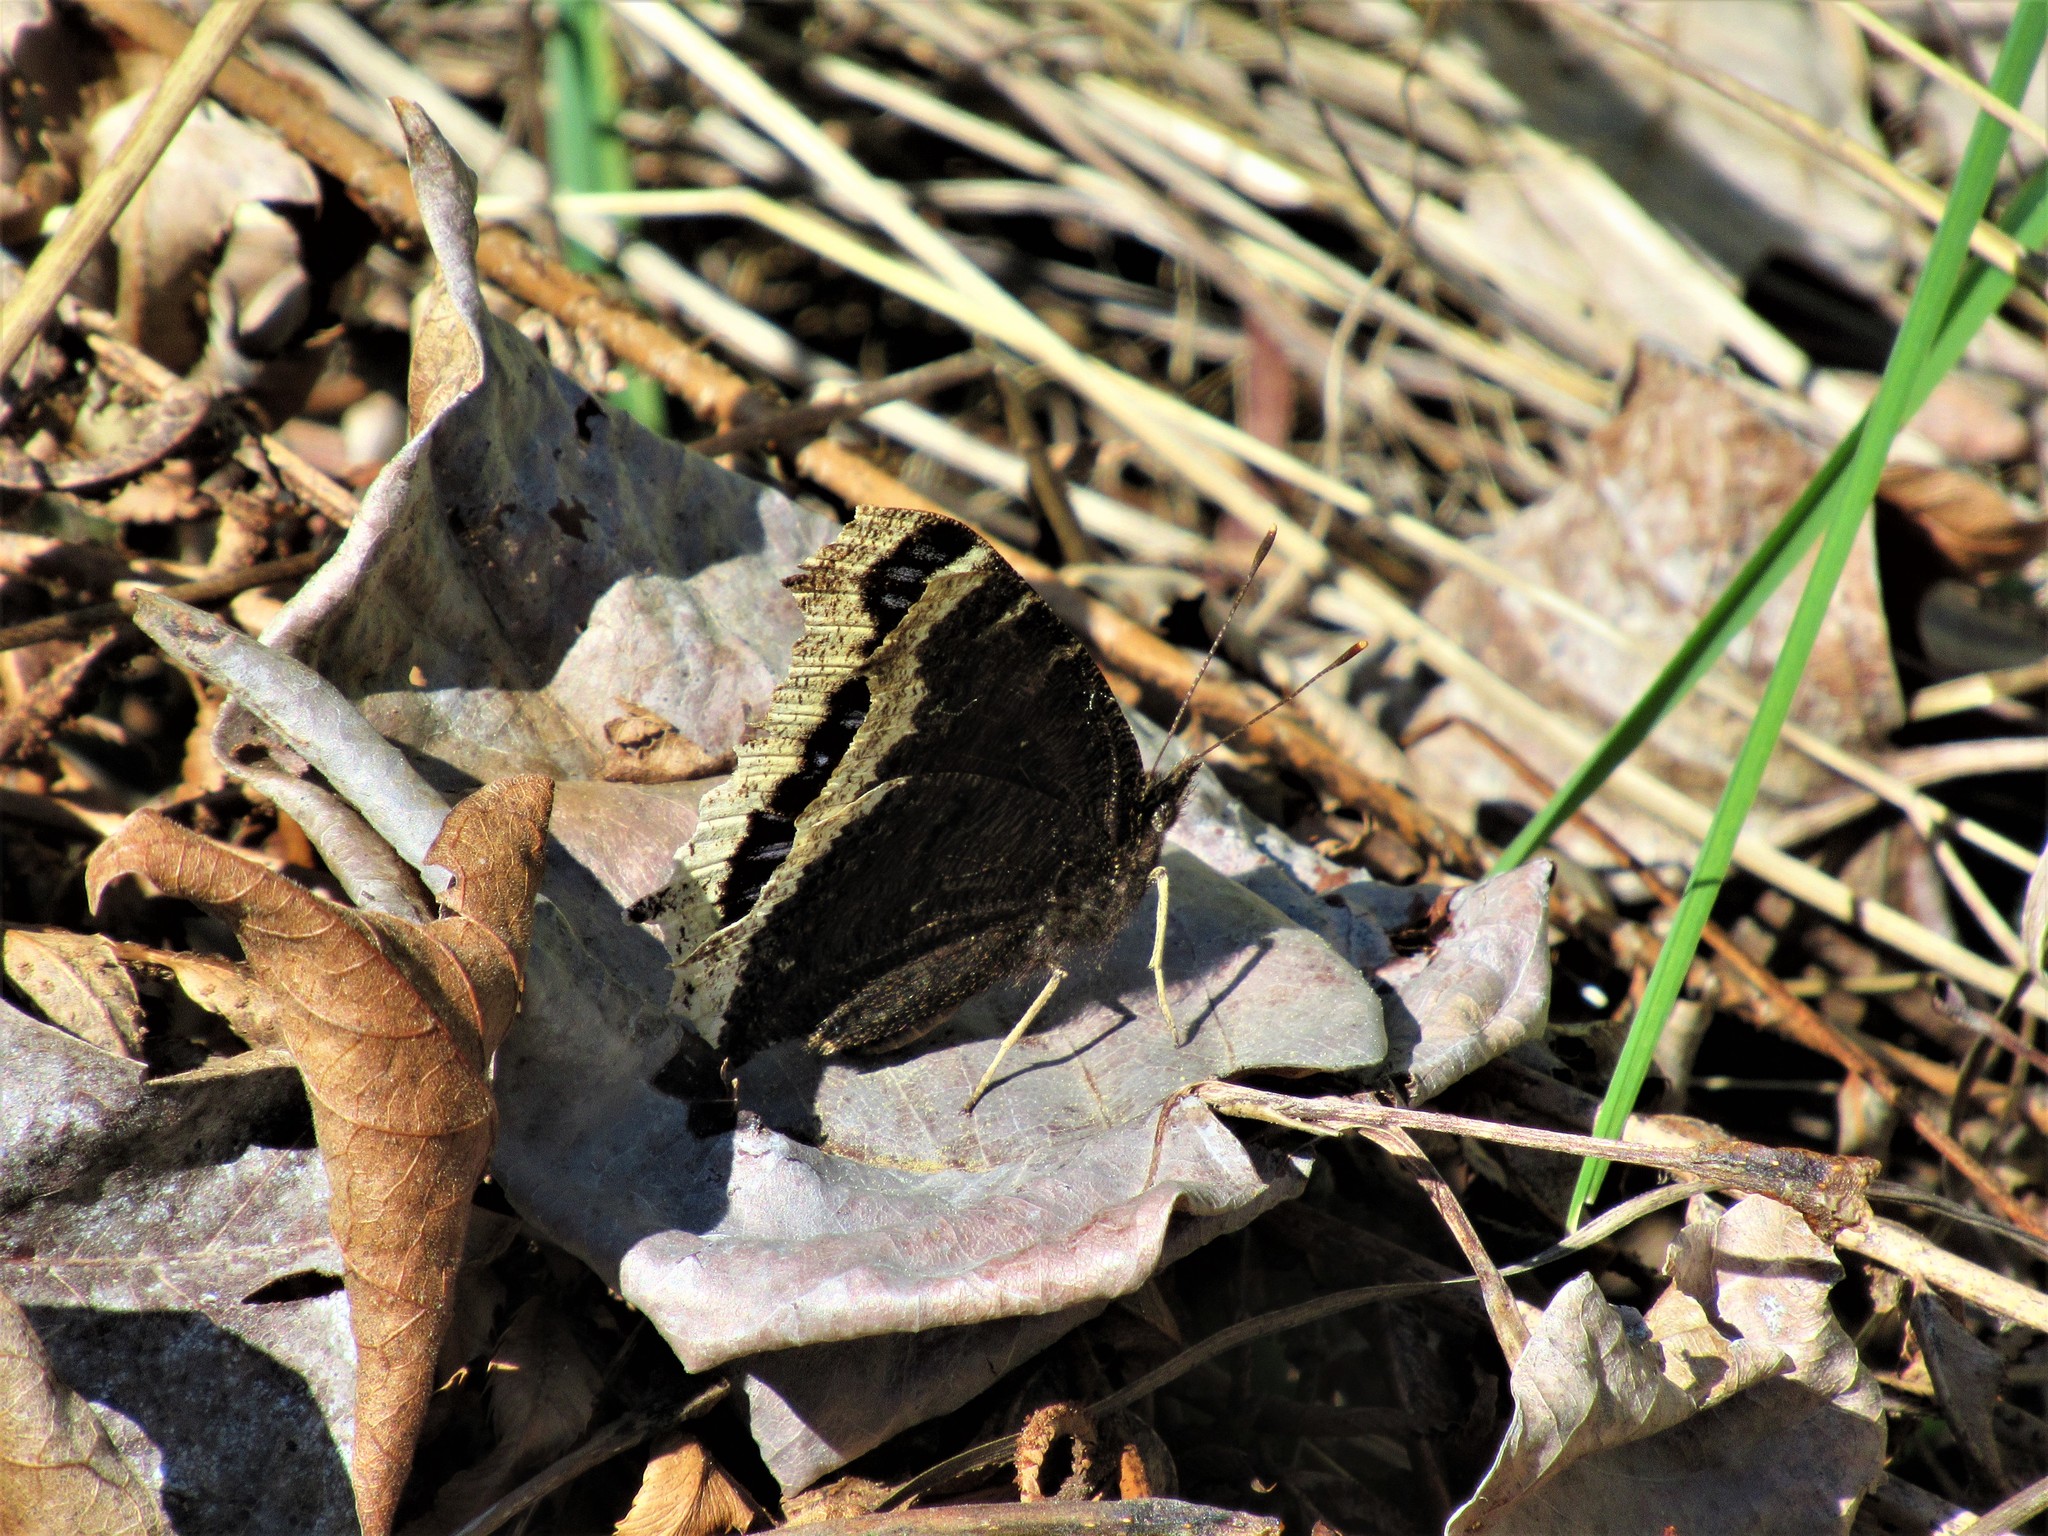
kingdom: Animalia
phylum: Arthropoda
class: Insecta
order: Lepidoptera
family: Nymphalidae
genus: Nymphalis
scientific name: Nymphalis antiopa
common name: Camberwell beauty
